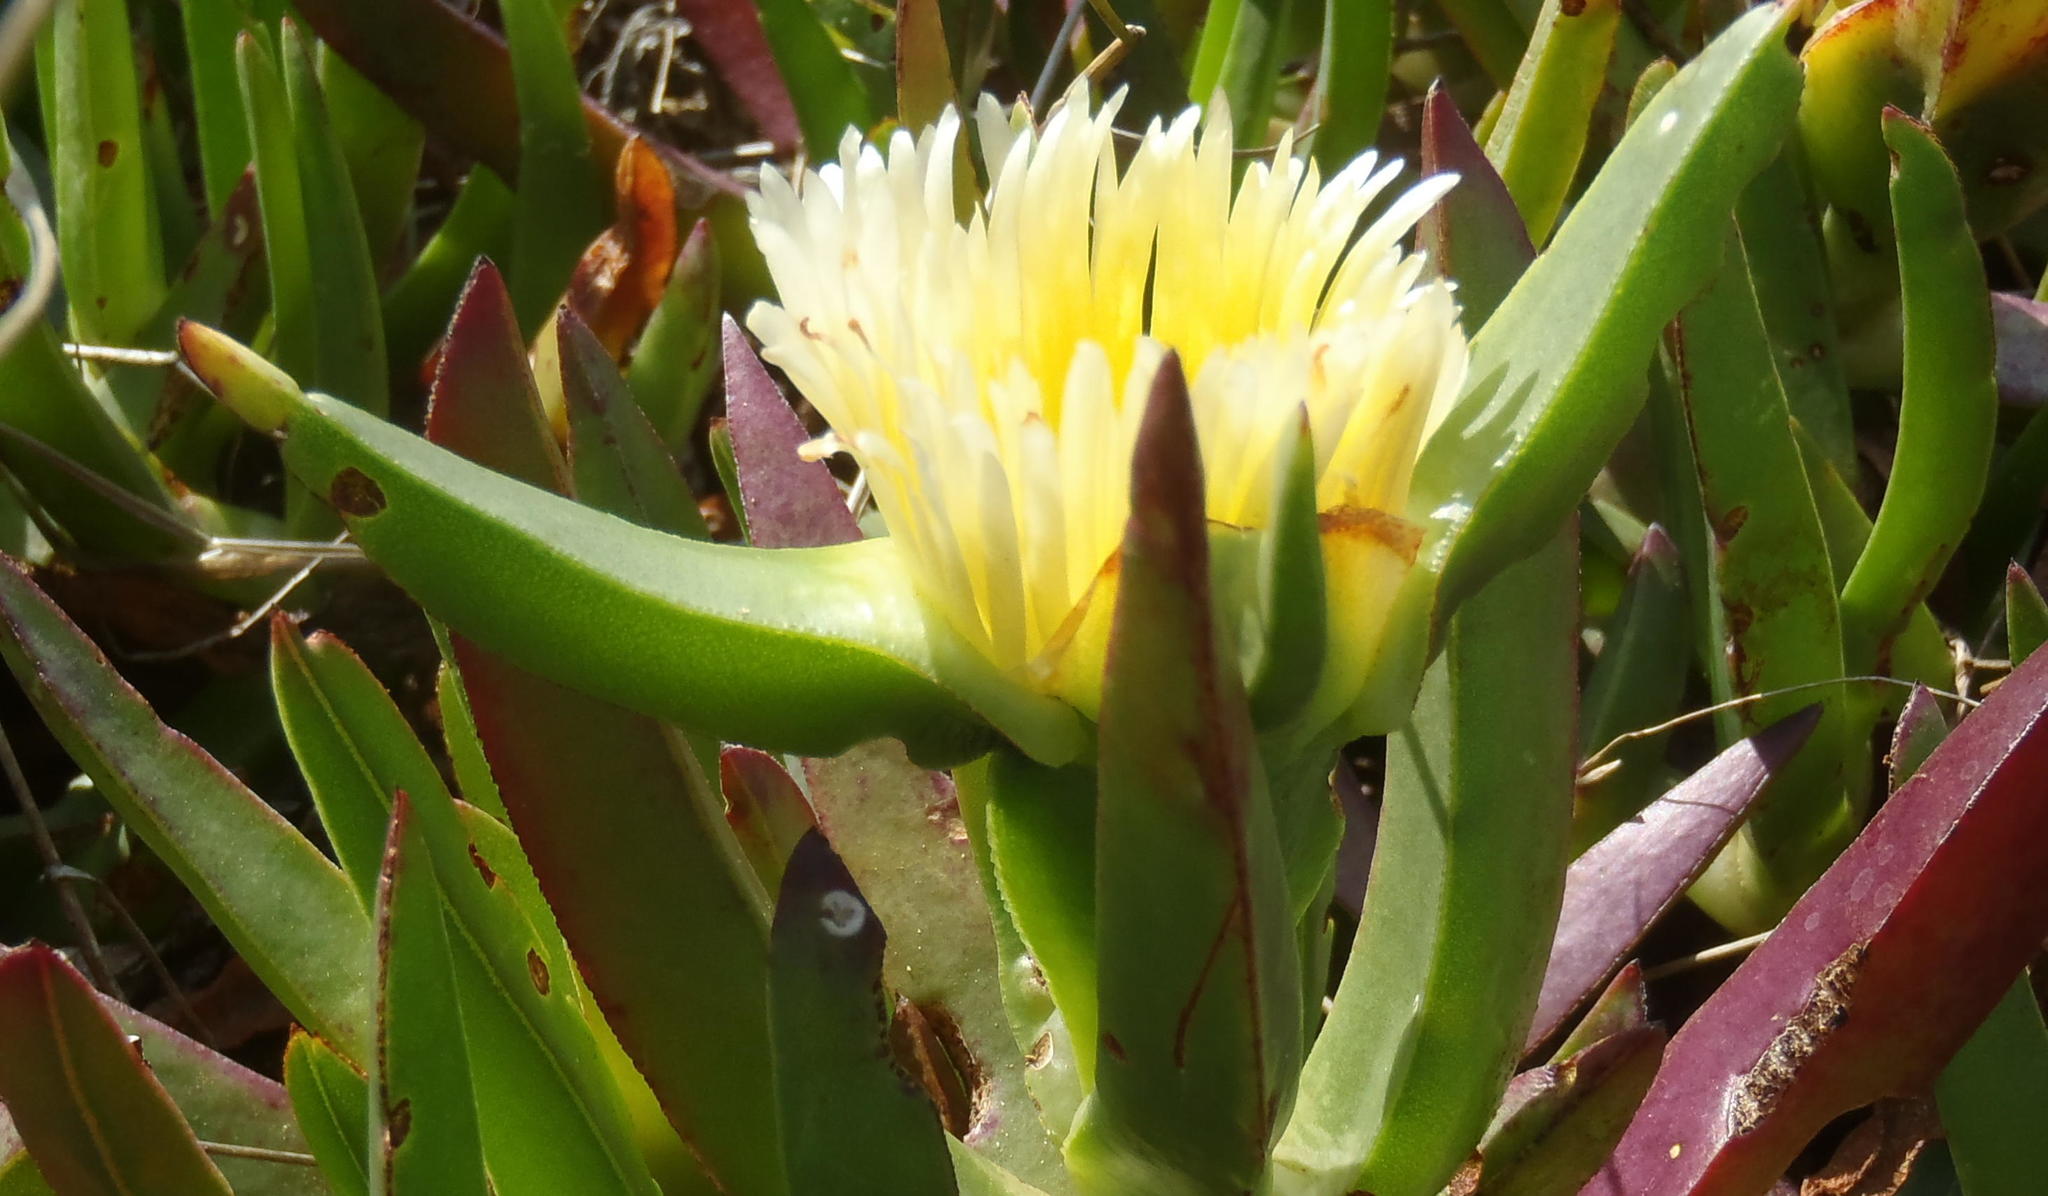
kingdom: Plantae
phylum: Tracheophyta
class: Magnoliopsida
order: Caryophyllales
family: Aizoaceae
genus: Carpobrotus
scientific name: Carpobrotus edulis
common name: Hottentot-fig
